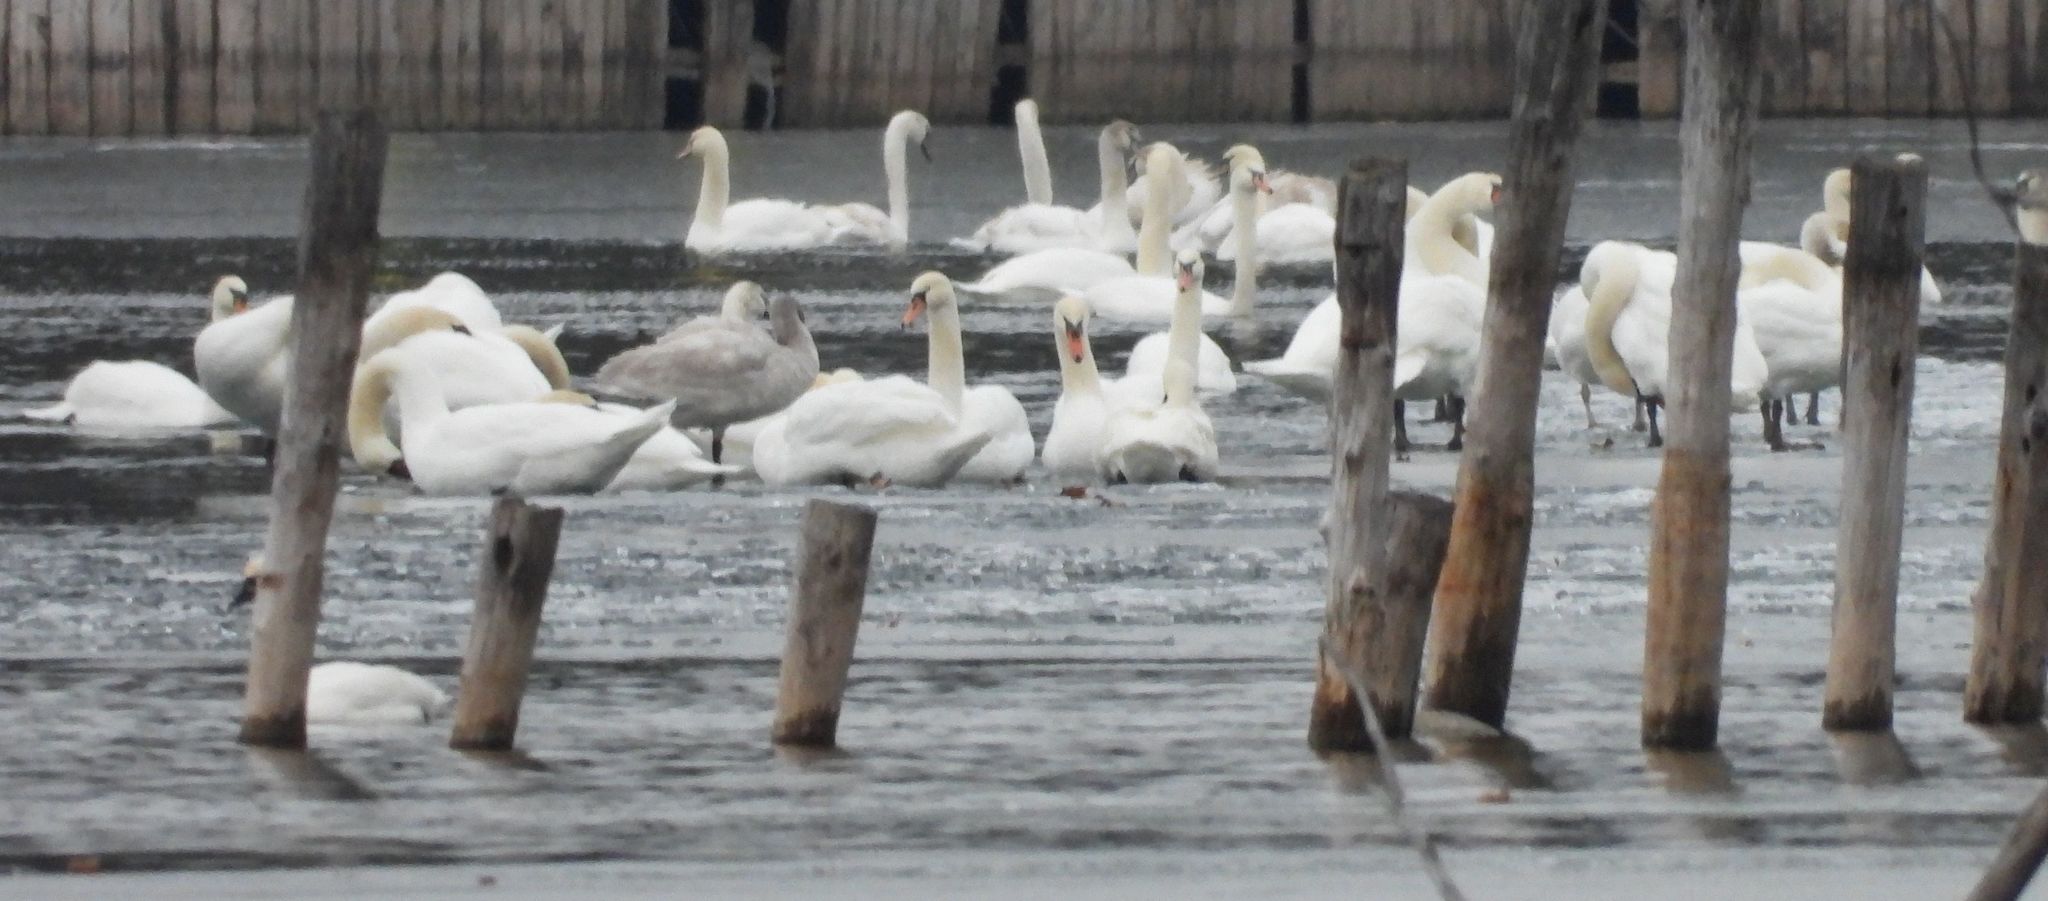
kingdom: Animalia
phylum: Chordata
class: Aves
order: Anseriformes
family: Anatidae
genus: Cygnus
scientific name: Cygnus olor
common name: Mute swan
